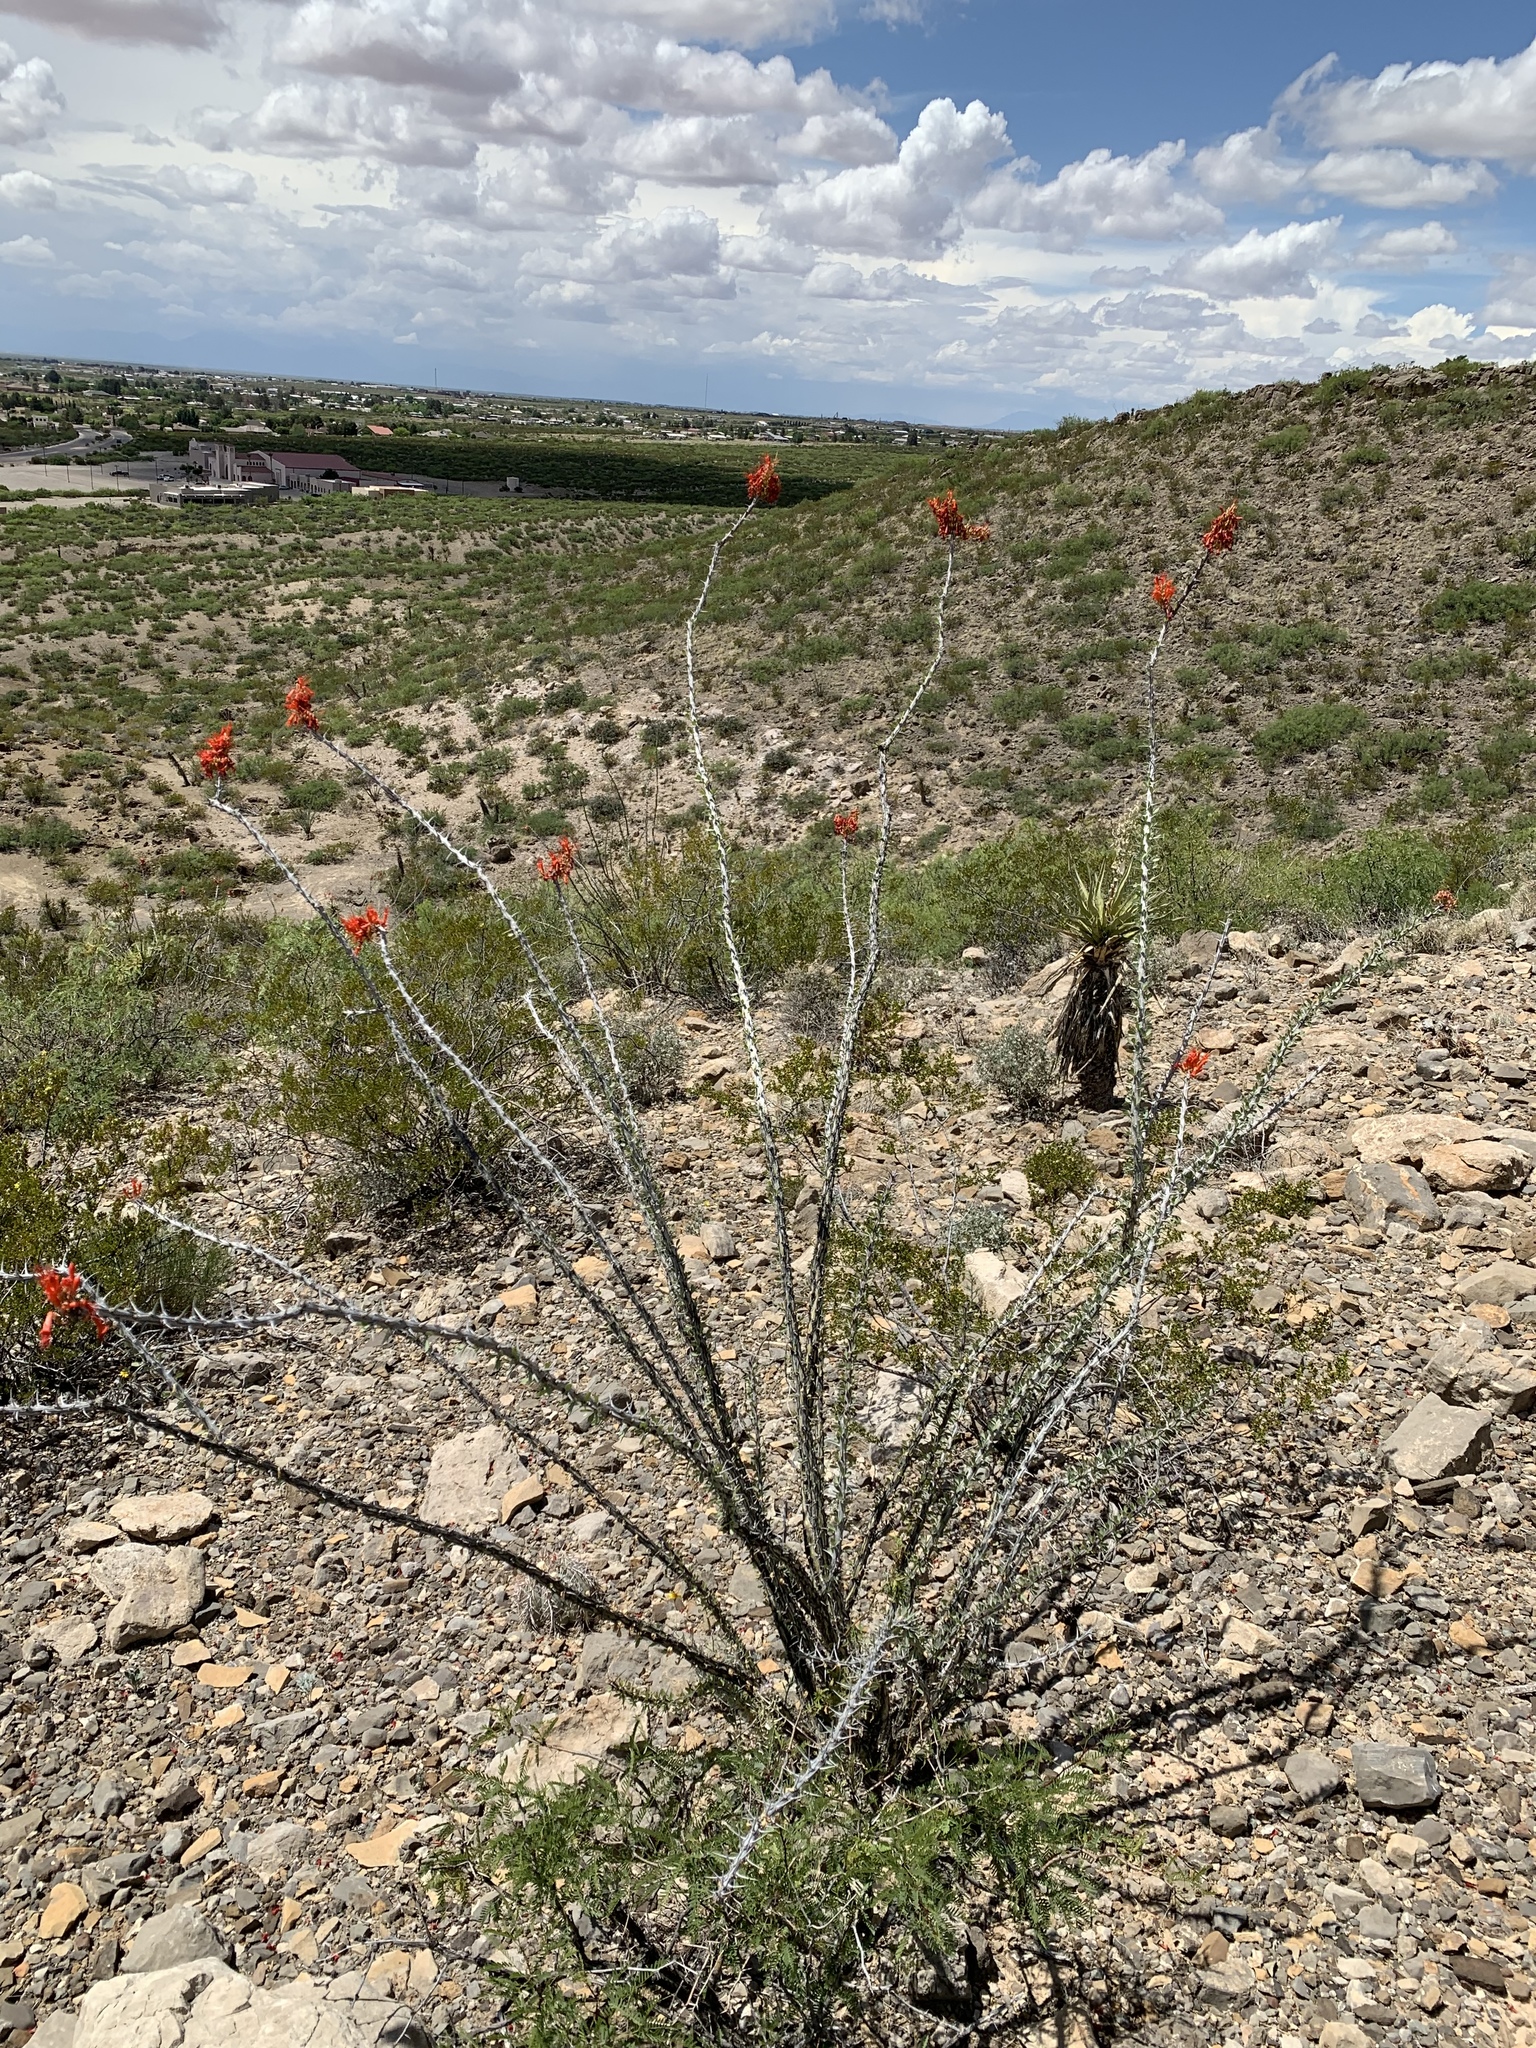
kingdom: Plantae
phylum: Tracheophyta
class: Magnoliopsida
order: Ericales
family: Fouquieriaceae
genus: Fouquieria
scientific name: Fouquieria splendens
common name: Vine-cactus
